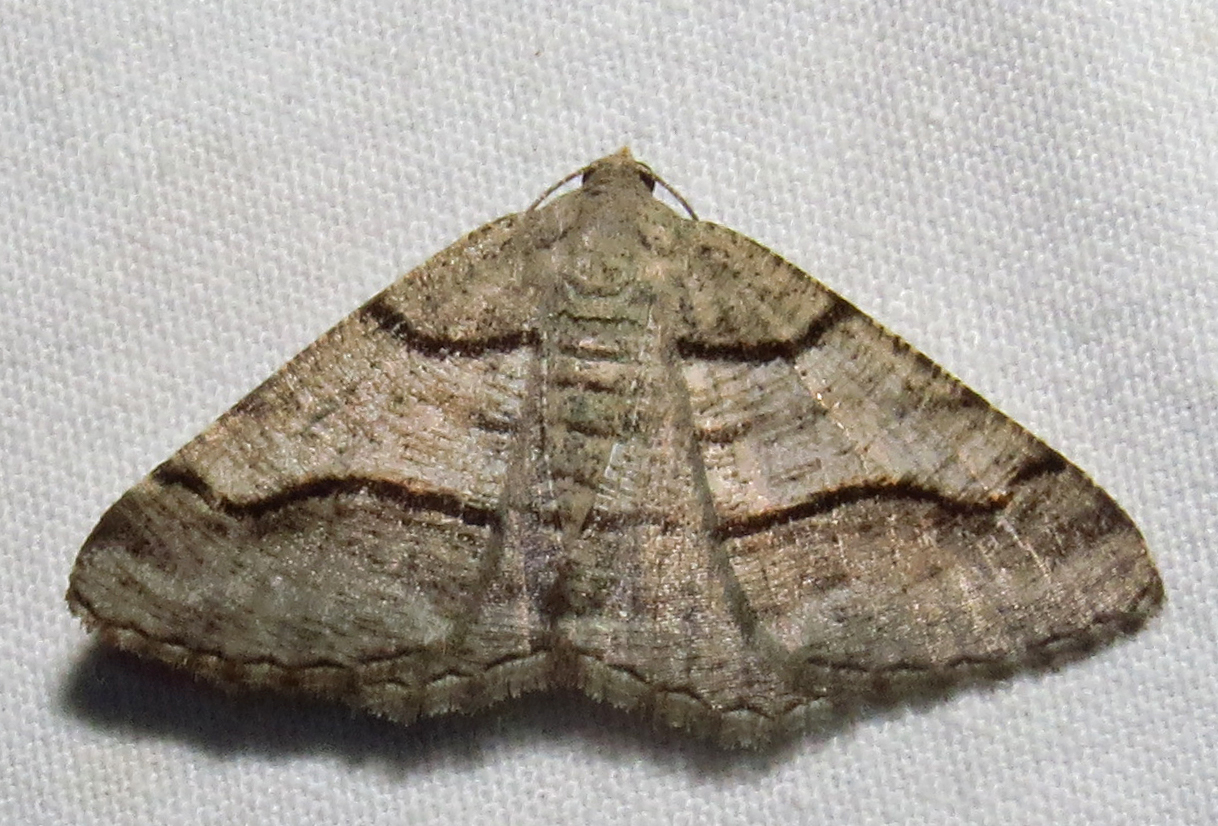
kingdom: Animalia
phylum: Arthropoda
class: Insecta
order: Lepidoptera
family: Geometridae
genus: Digrammia
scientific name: Digrammia continuata
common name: Curve-lined angle
